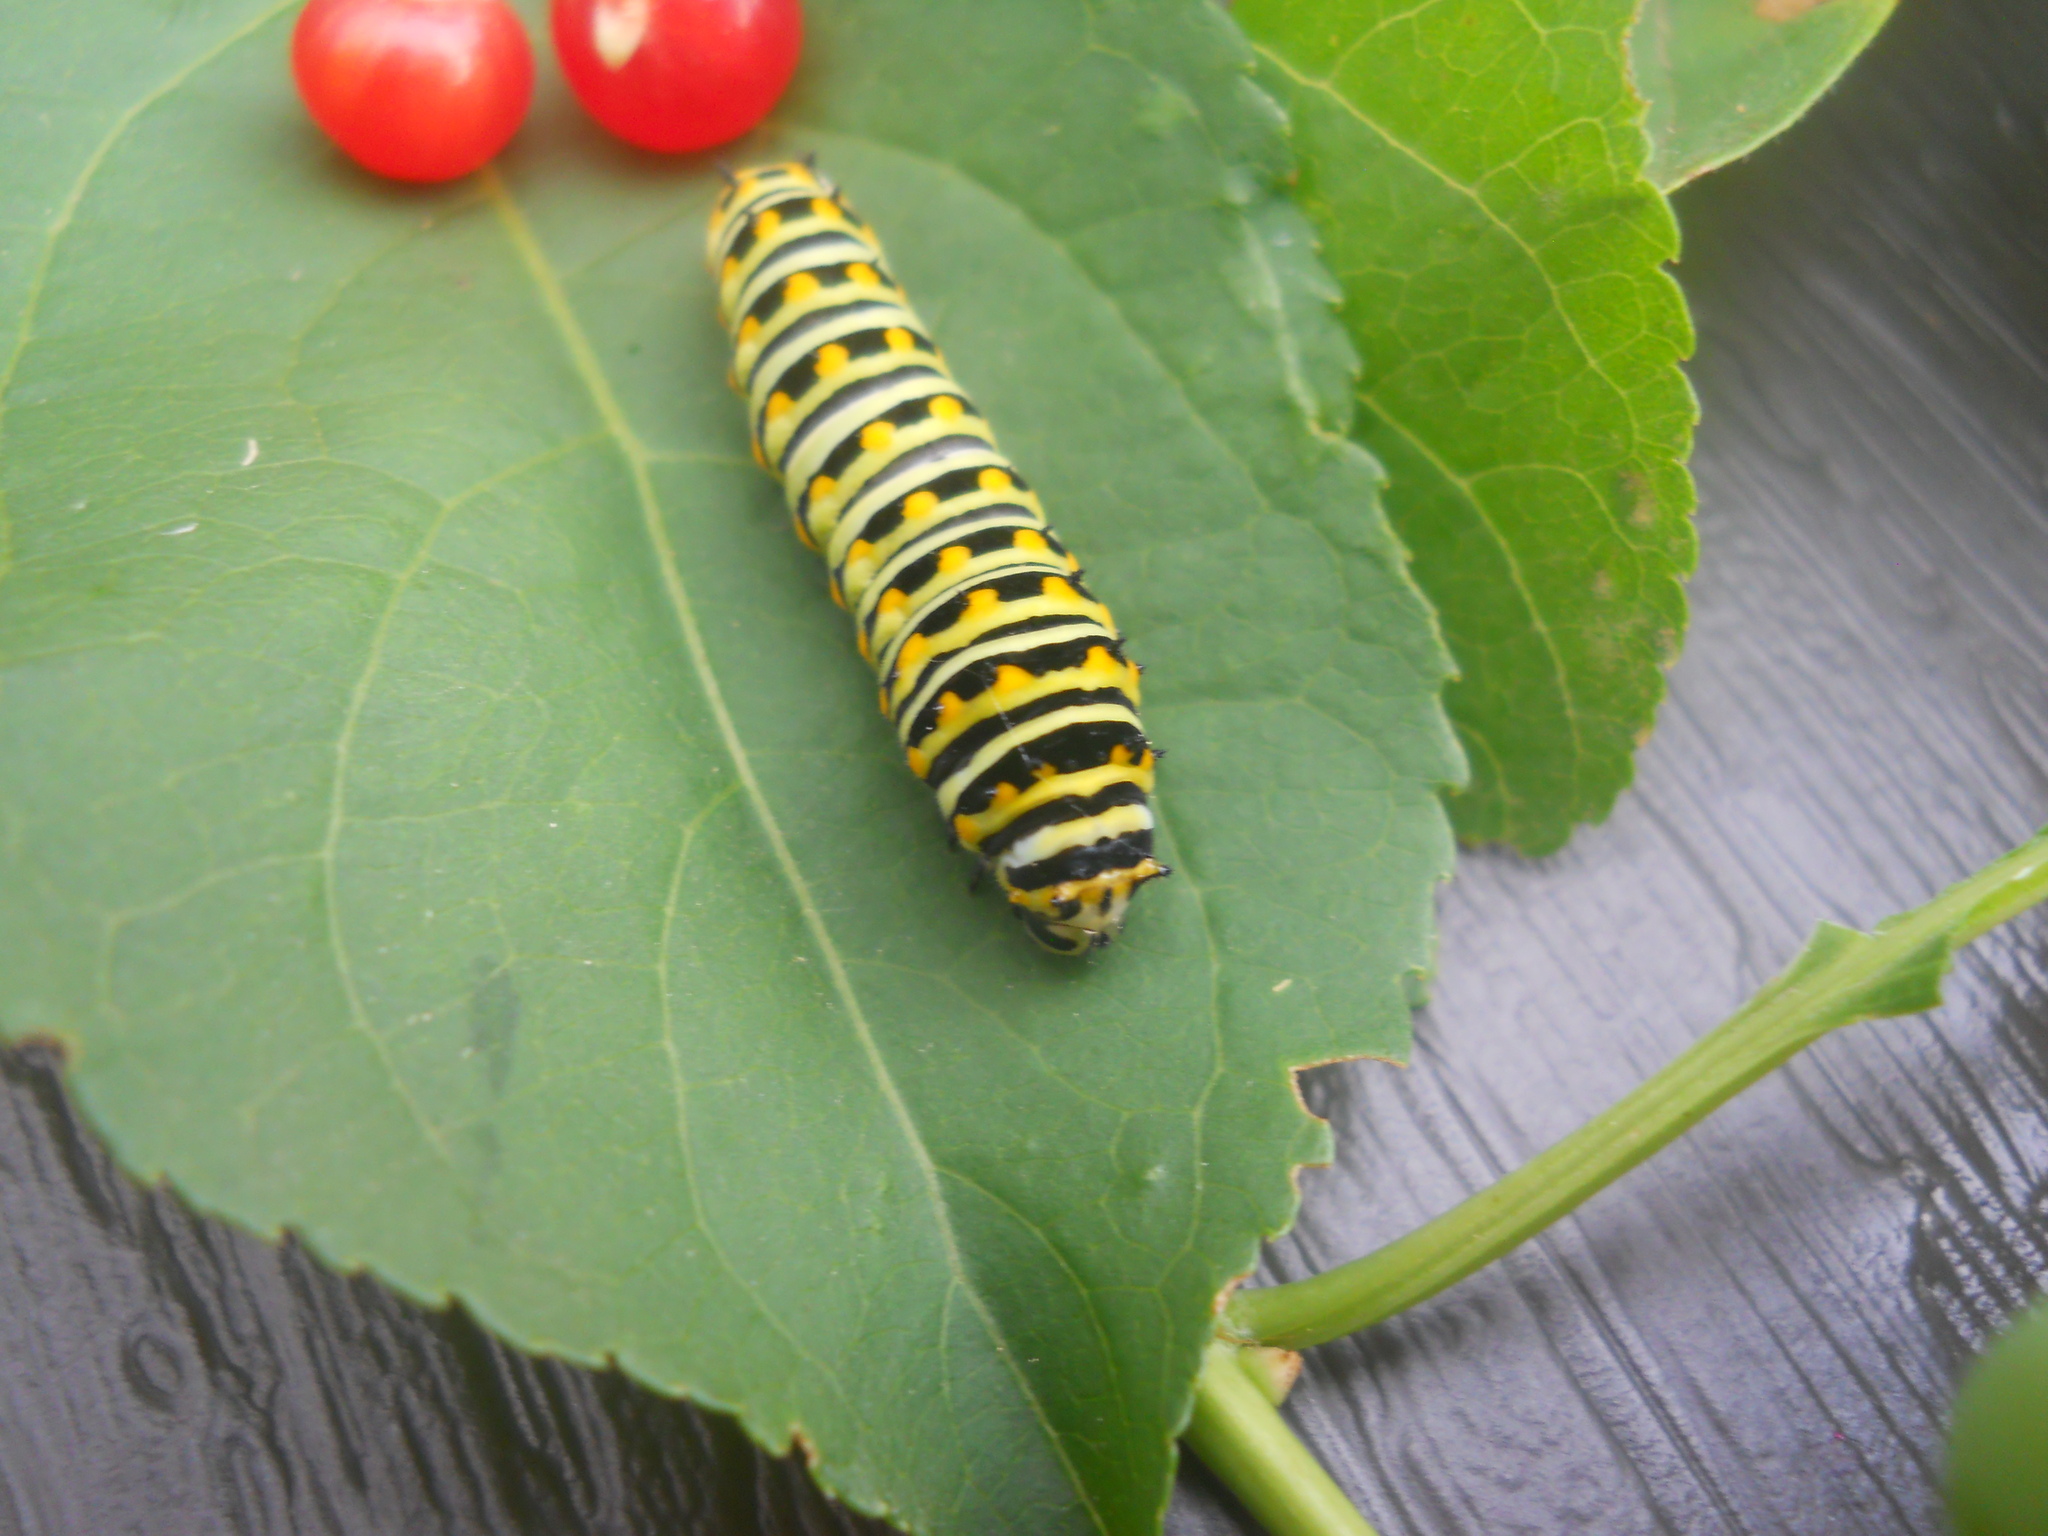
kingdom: Animalia
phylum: Arthropoda
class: Insecta
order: Lepidoptera
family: Papilionidae
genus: Papilio
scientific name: Papilio polyxenes
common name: Black swallowtail
